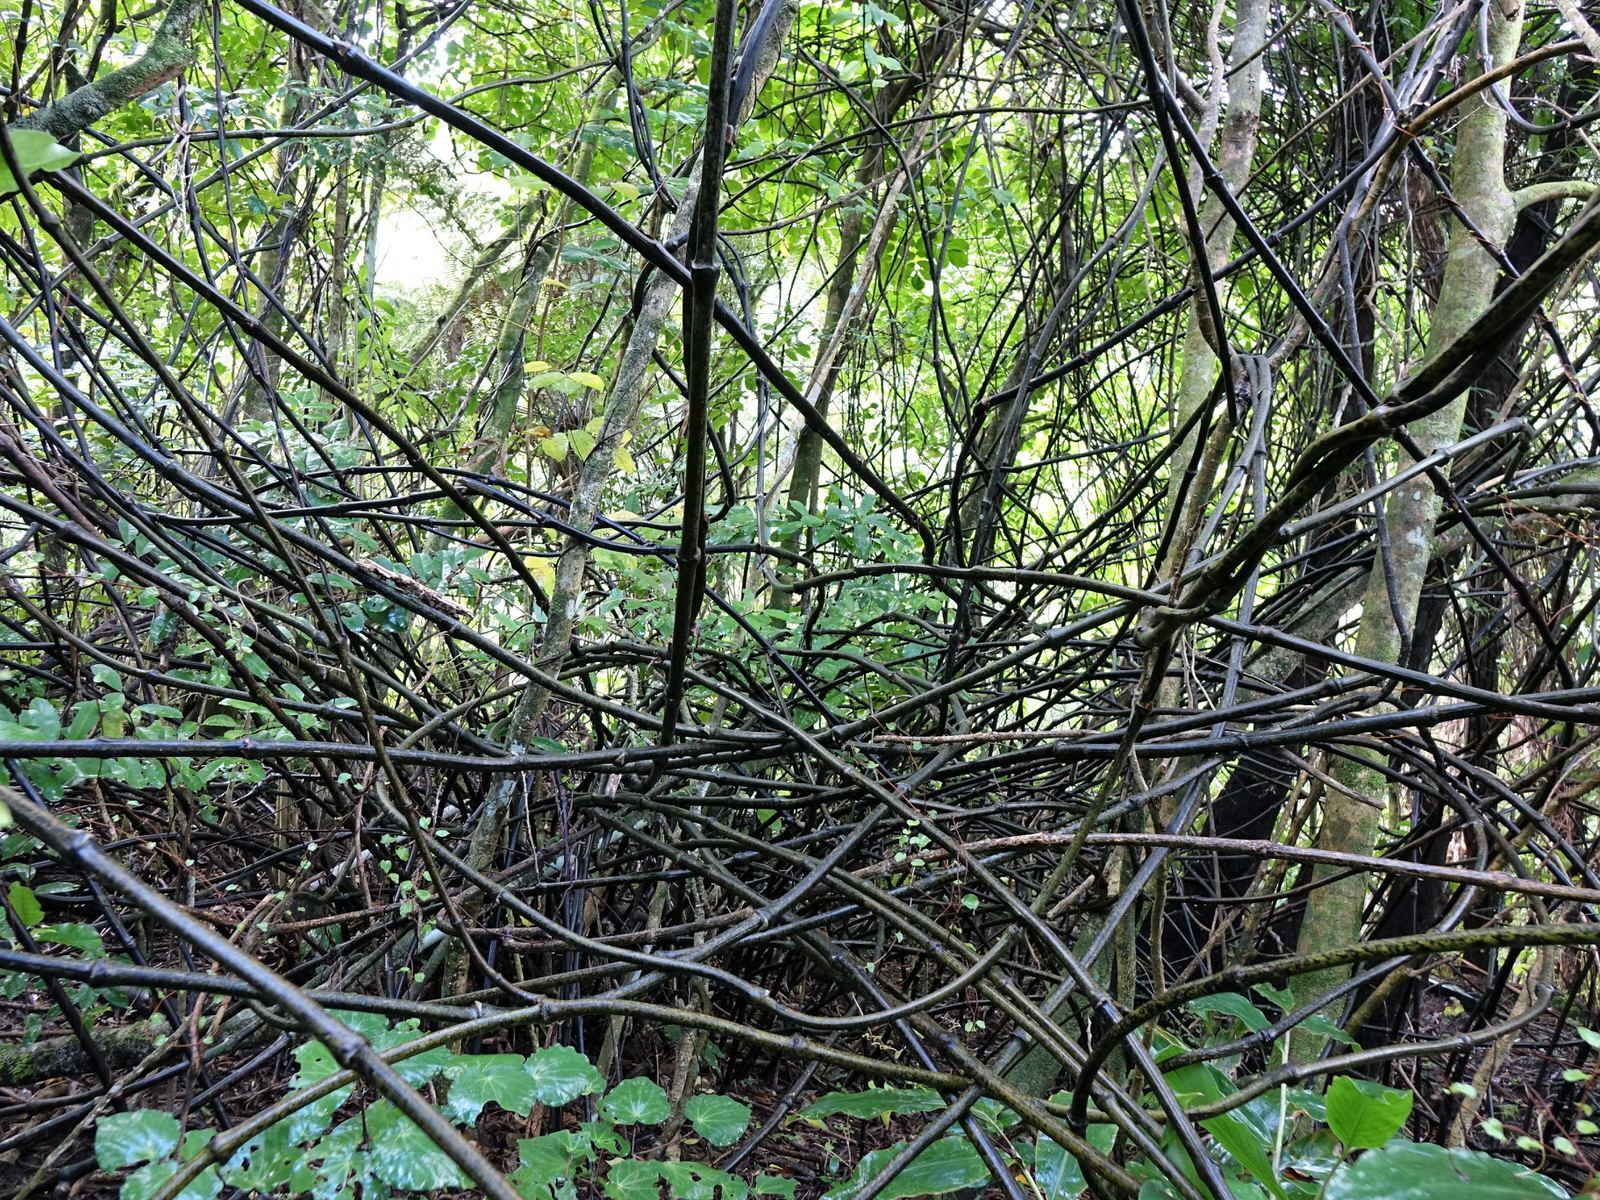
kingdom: Plantae
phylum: Tracheophyta
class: Liliopsida
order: Liliales
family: Ripogonaceae
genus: Ripogonum
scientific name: Ripogonum scandens
